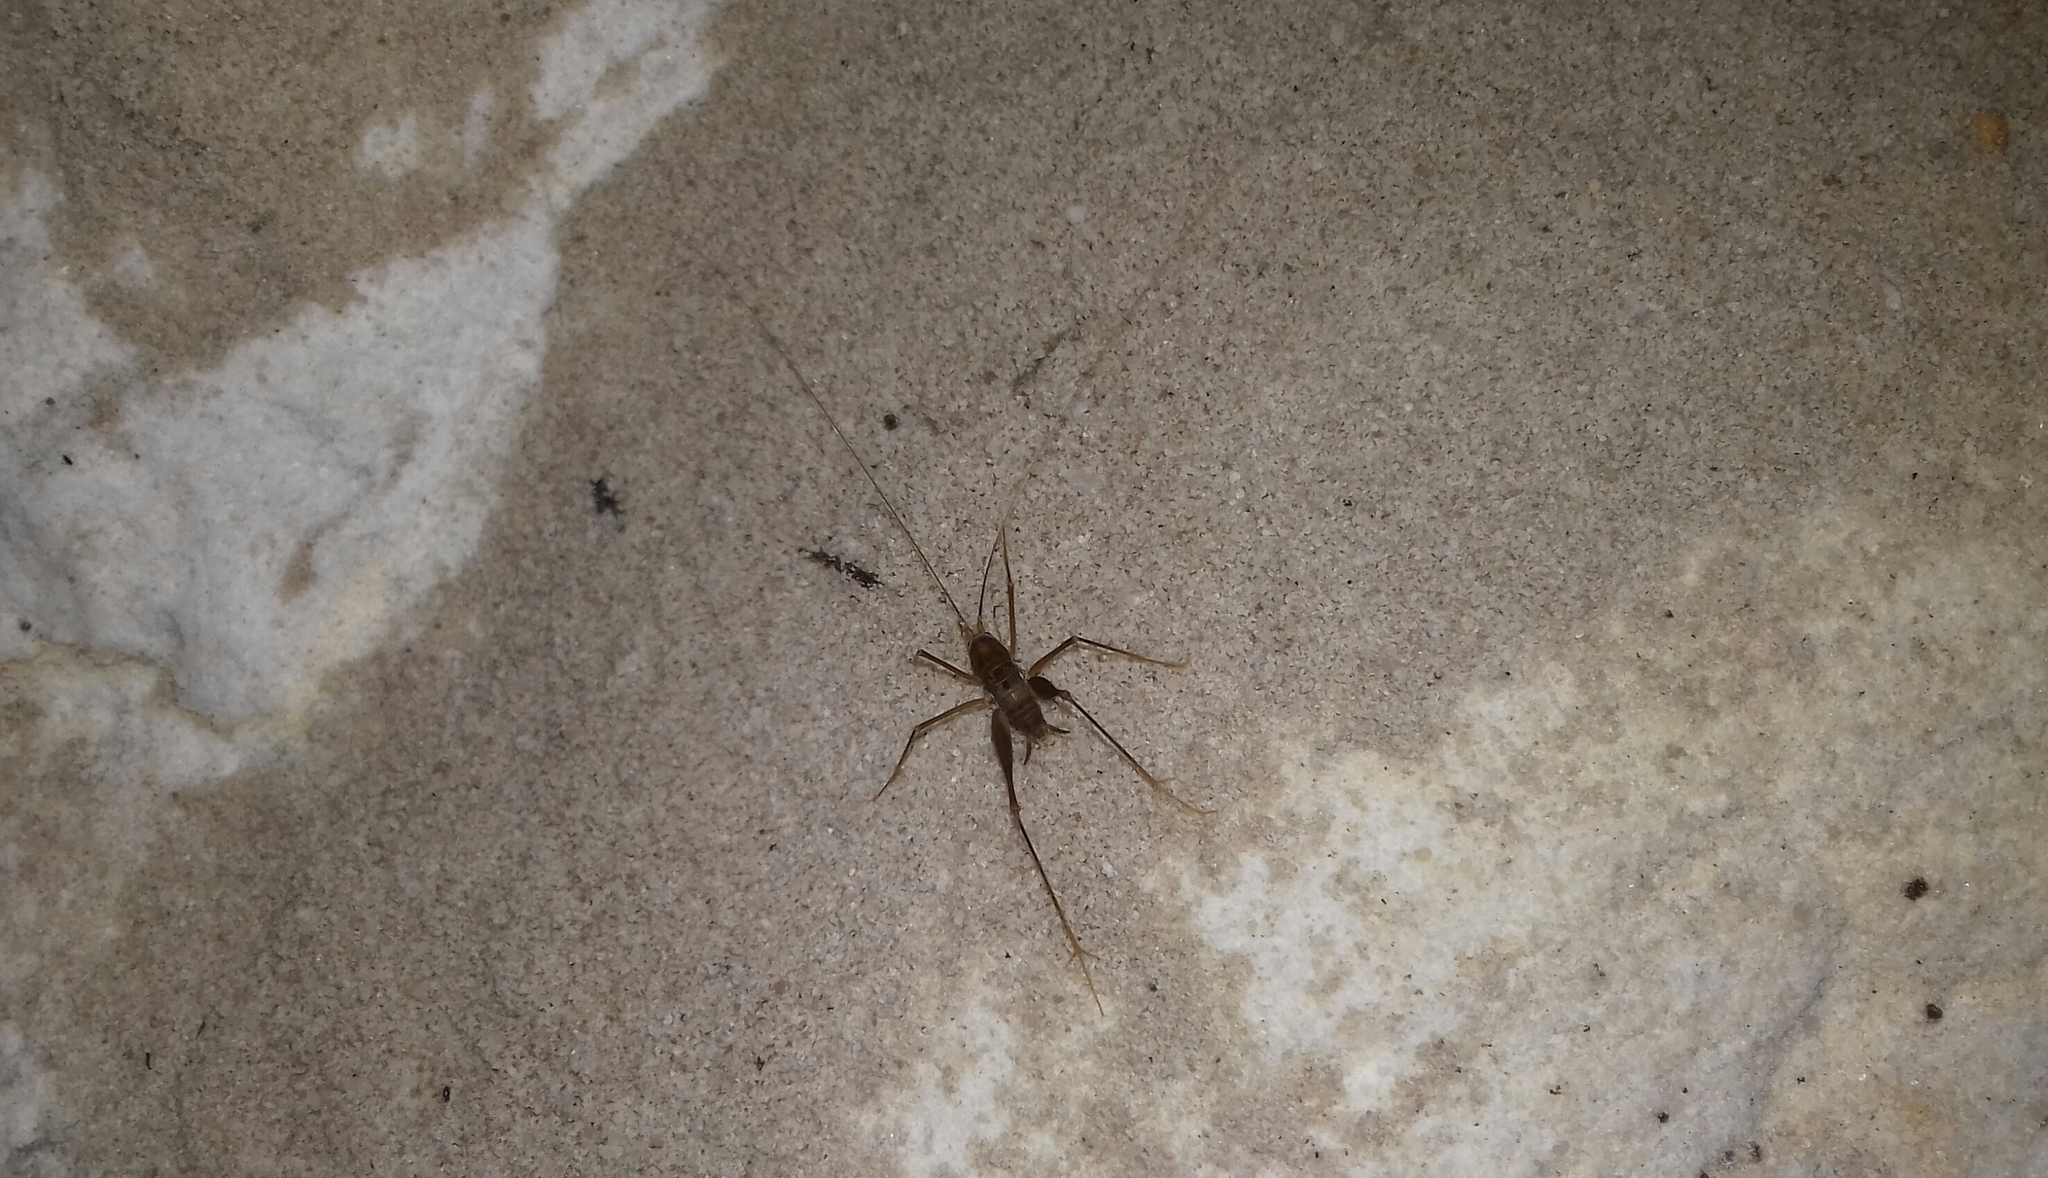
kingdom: Animalia
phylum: Arthropoda
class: Insecta
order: Orthoptera
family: Rhaphidophoridae
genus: Spelaeiacris
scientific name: Spelaeiacris tabulae
